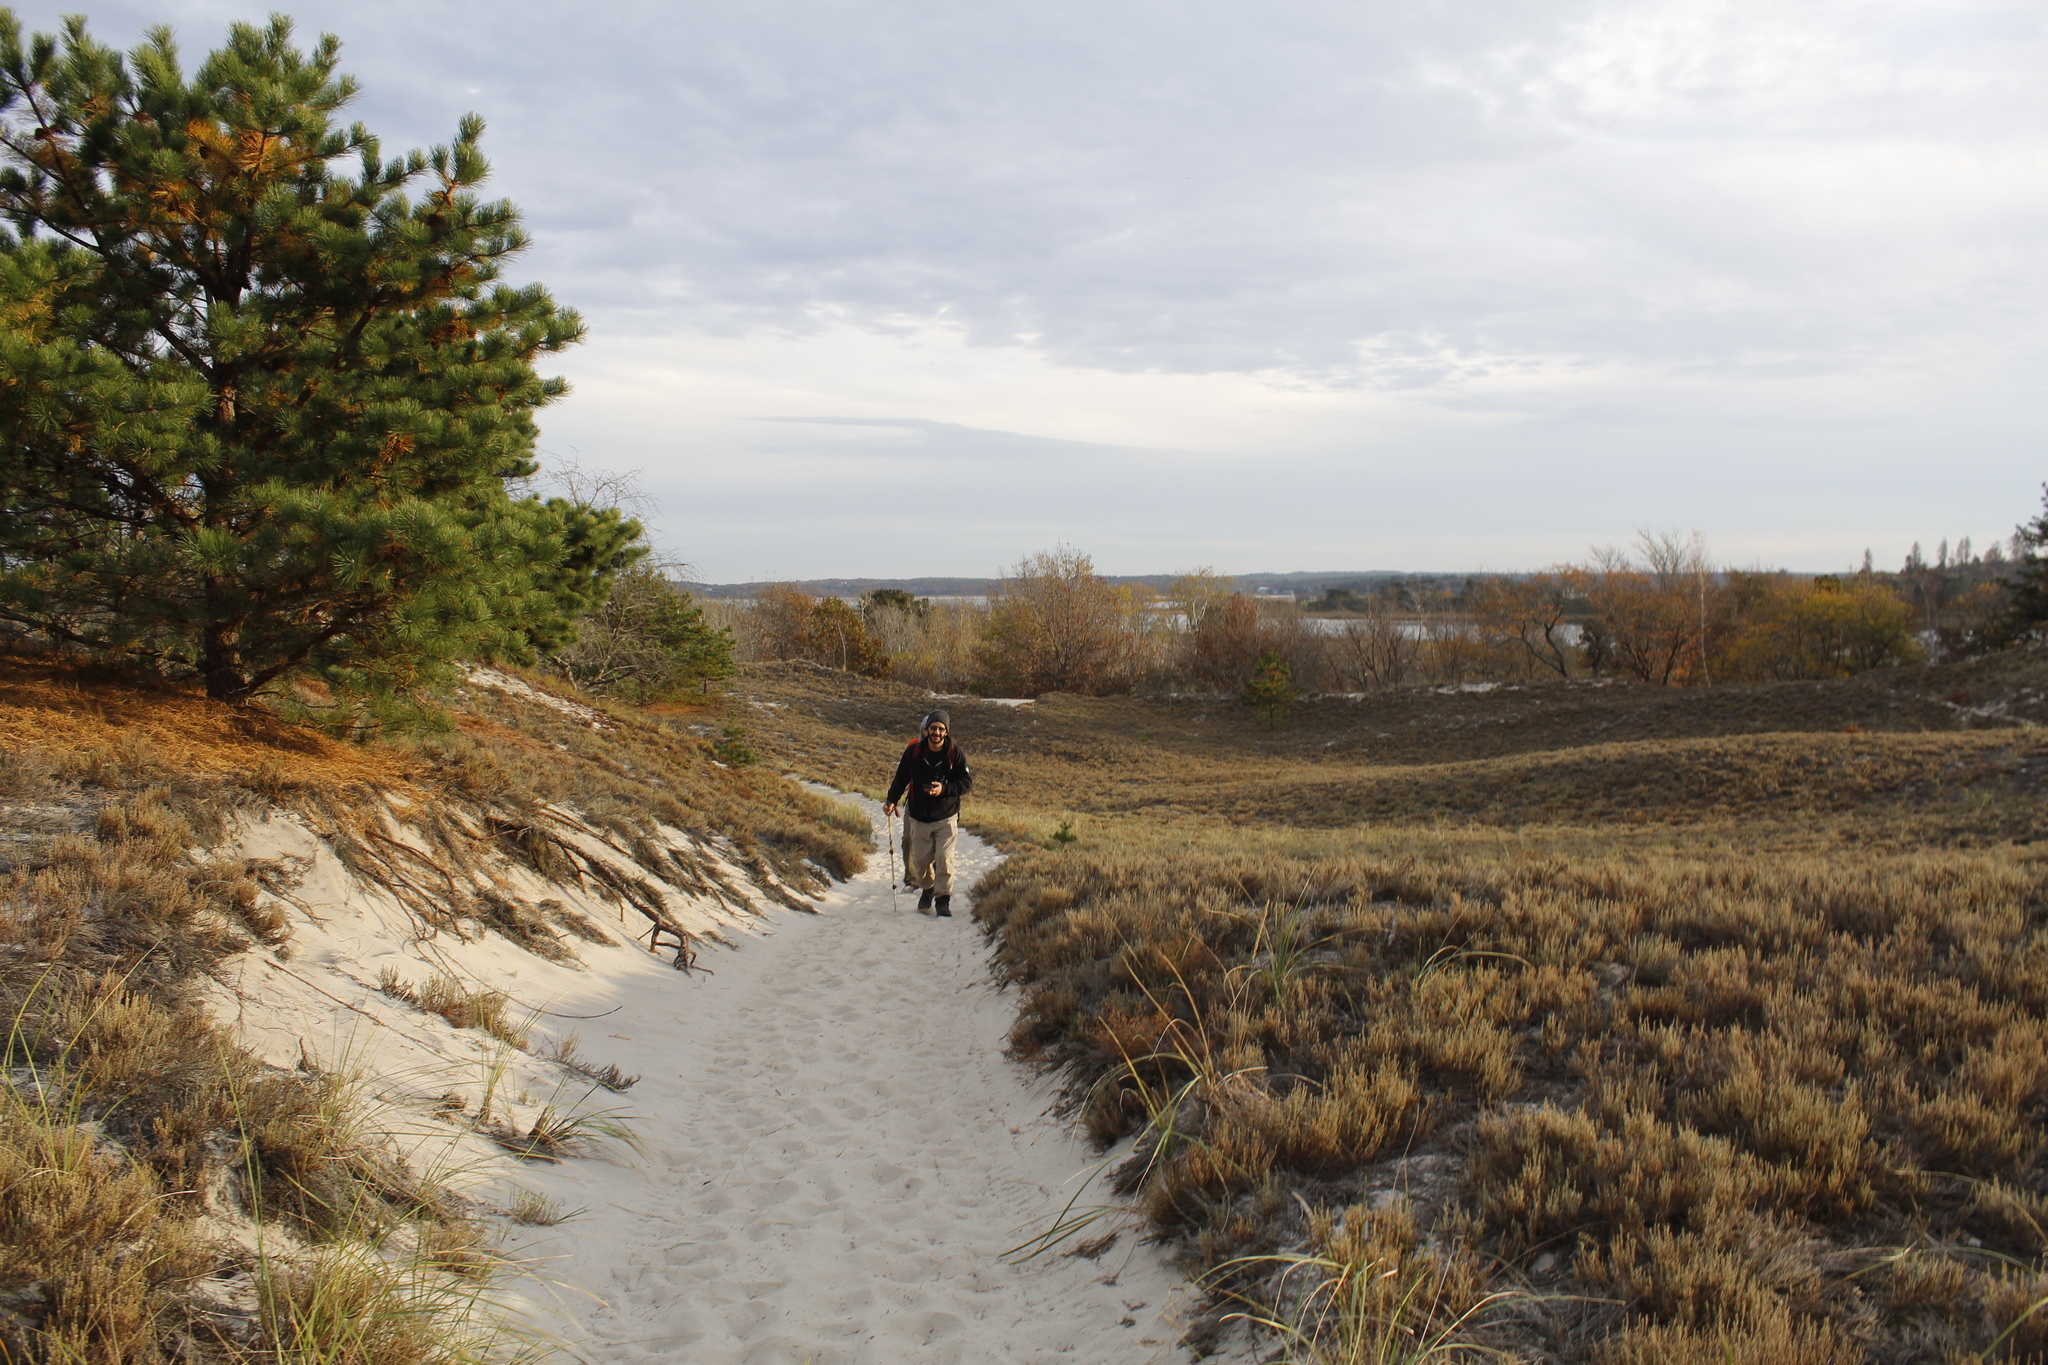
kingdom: Plantae
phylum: Tracheophyta
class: Magnoliopsida
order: Malvales
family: Cistaceae
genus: Hudsonia
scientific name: Hudsonia tomentosa
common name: Beach-heath
